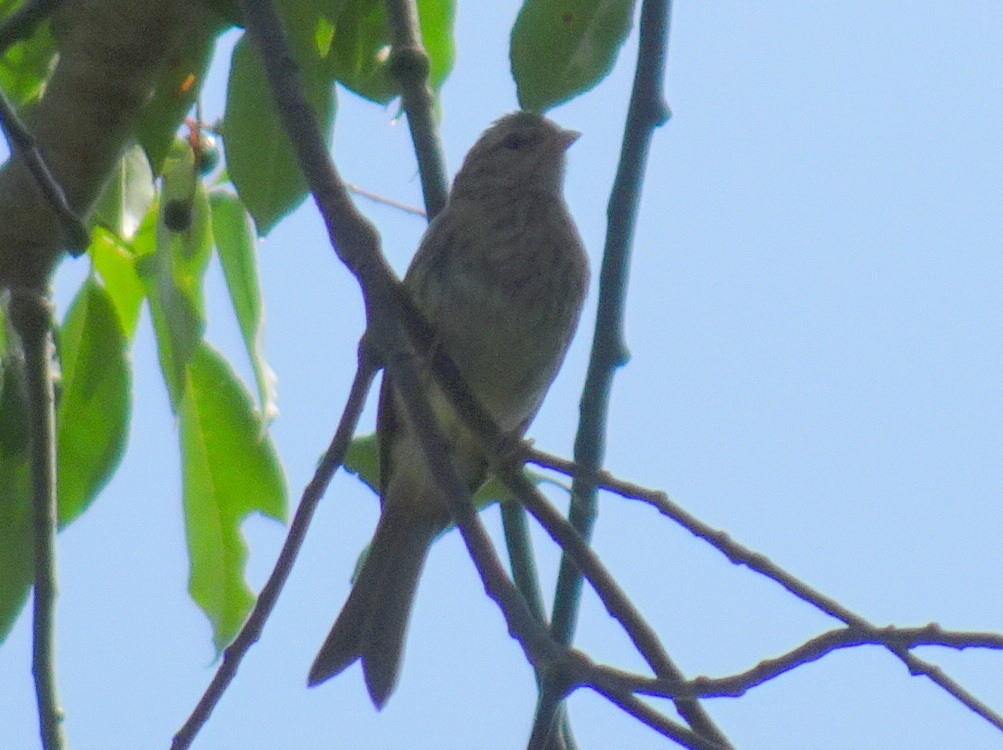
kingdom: Animalia
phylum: Chordata
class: Aves
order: Passeriformes
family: Passerellidae
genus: Spizella
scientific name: Spizella passerina
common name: Chipping sparrow
